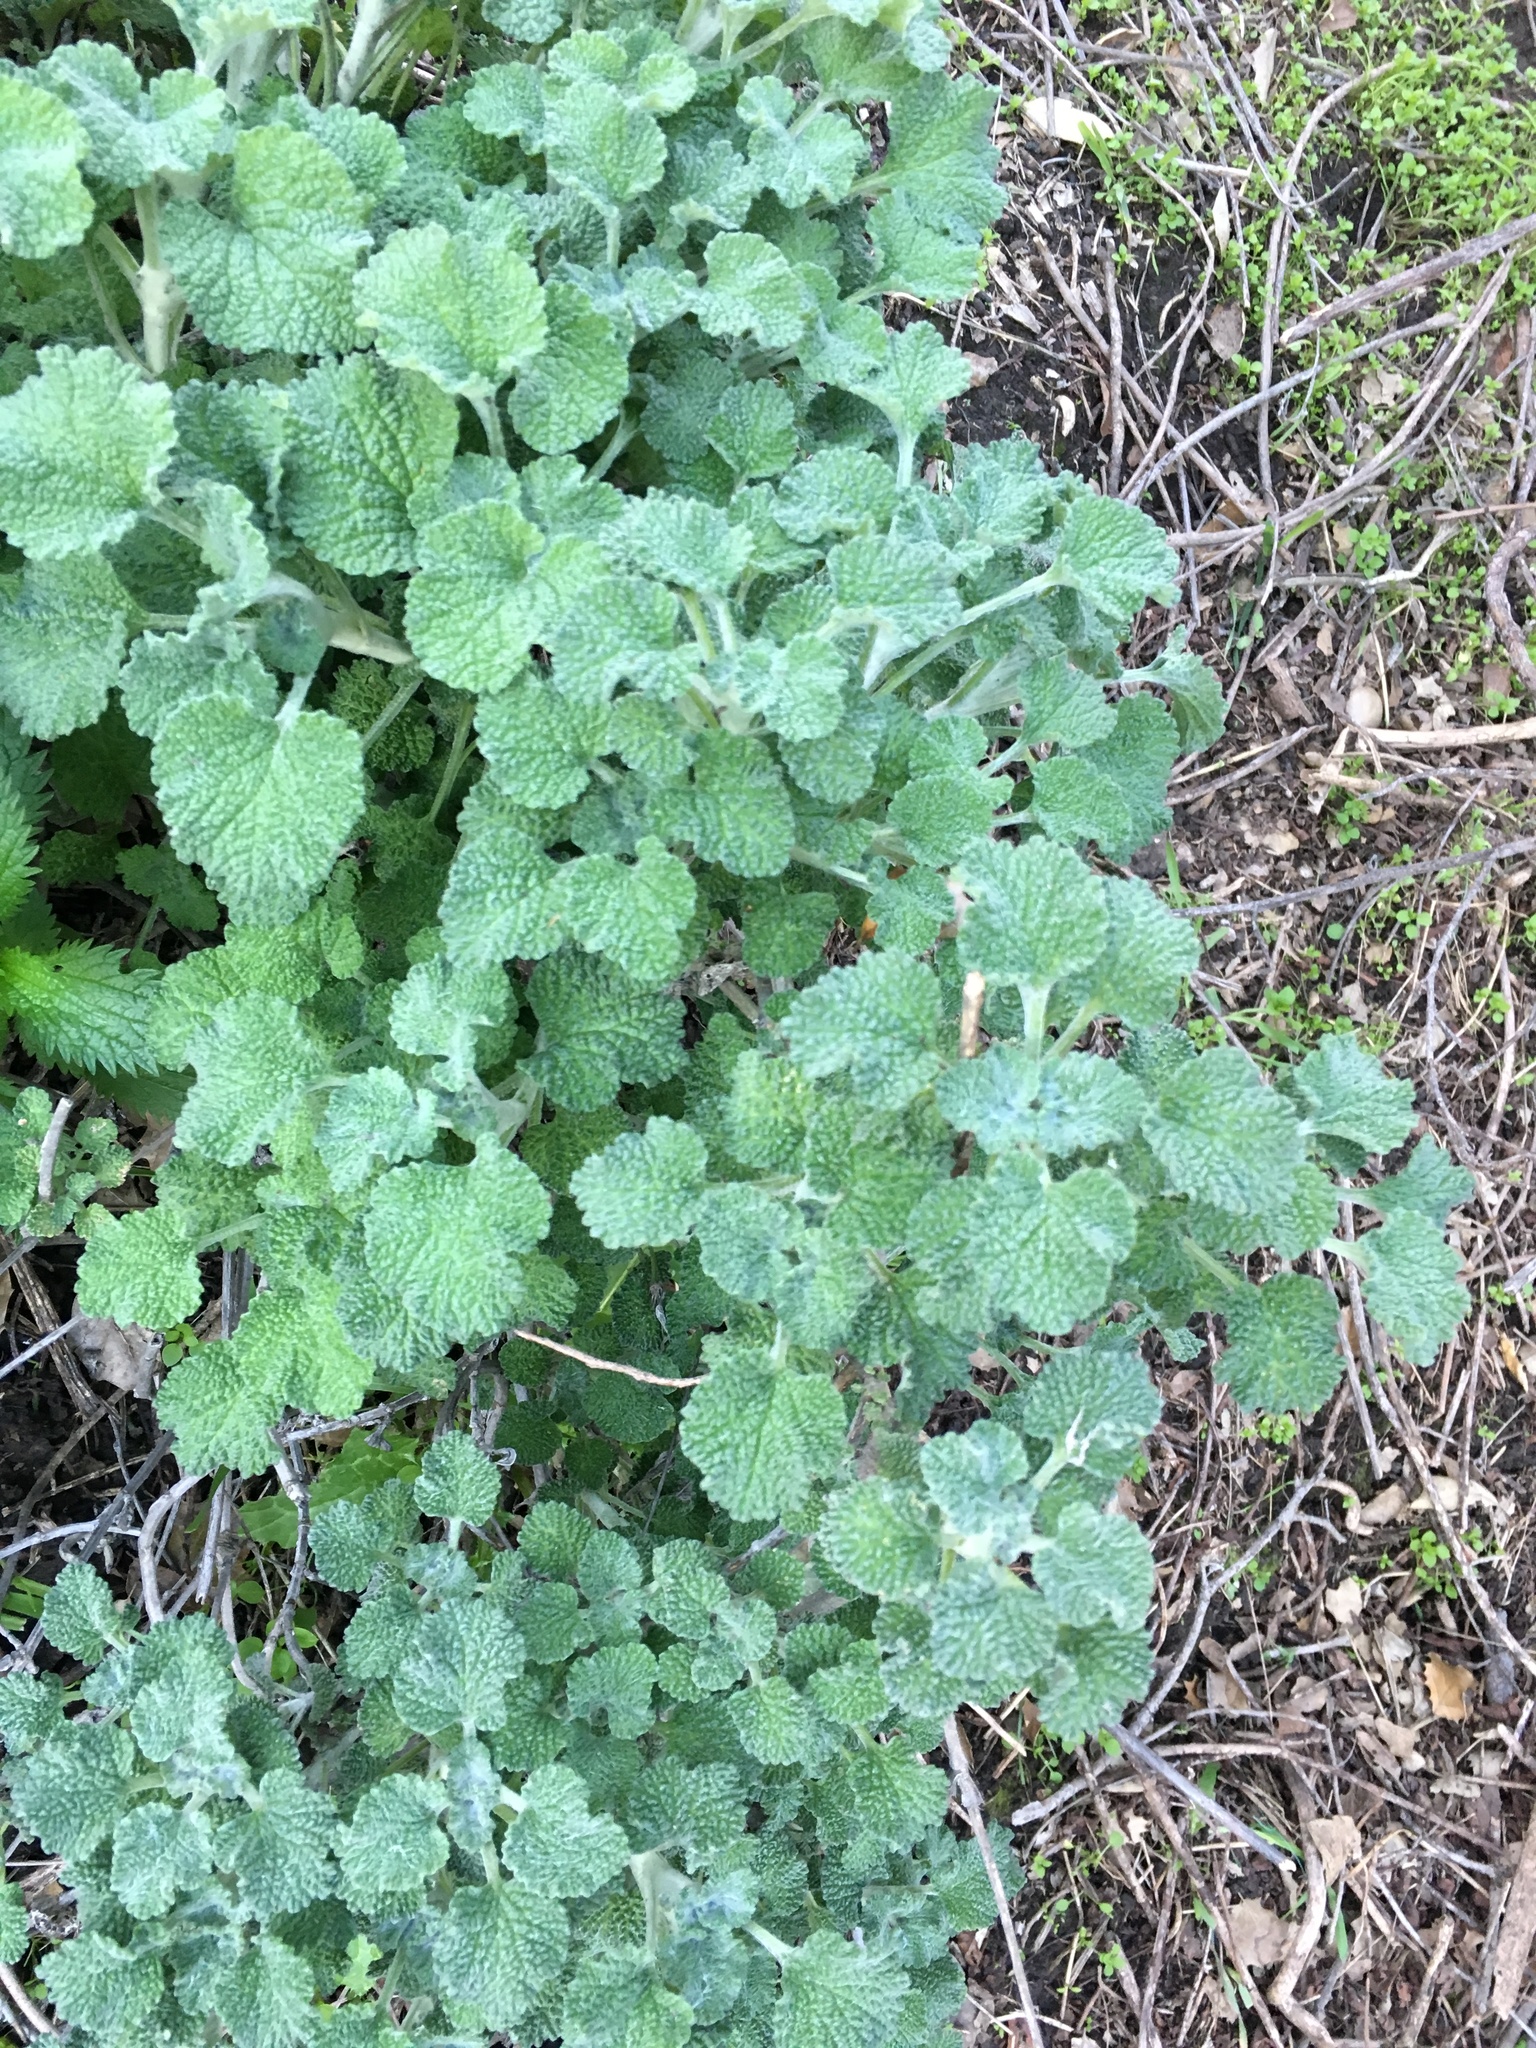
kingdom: Plantae
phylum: Tracheophyta
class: Magnoliopsida
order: Lamiales
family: Lamiaceae
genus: Marrubium
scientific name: Marrubium vulgare
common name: Horehound
